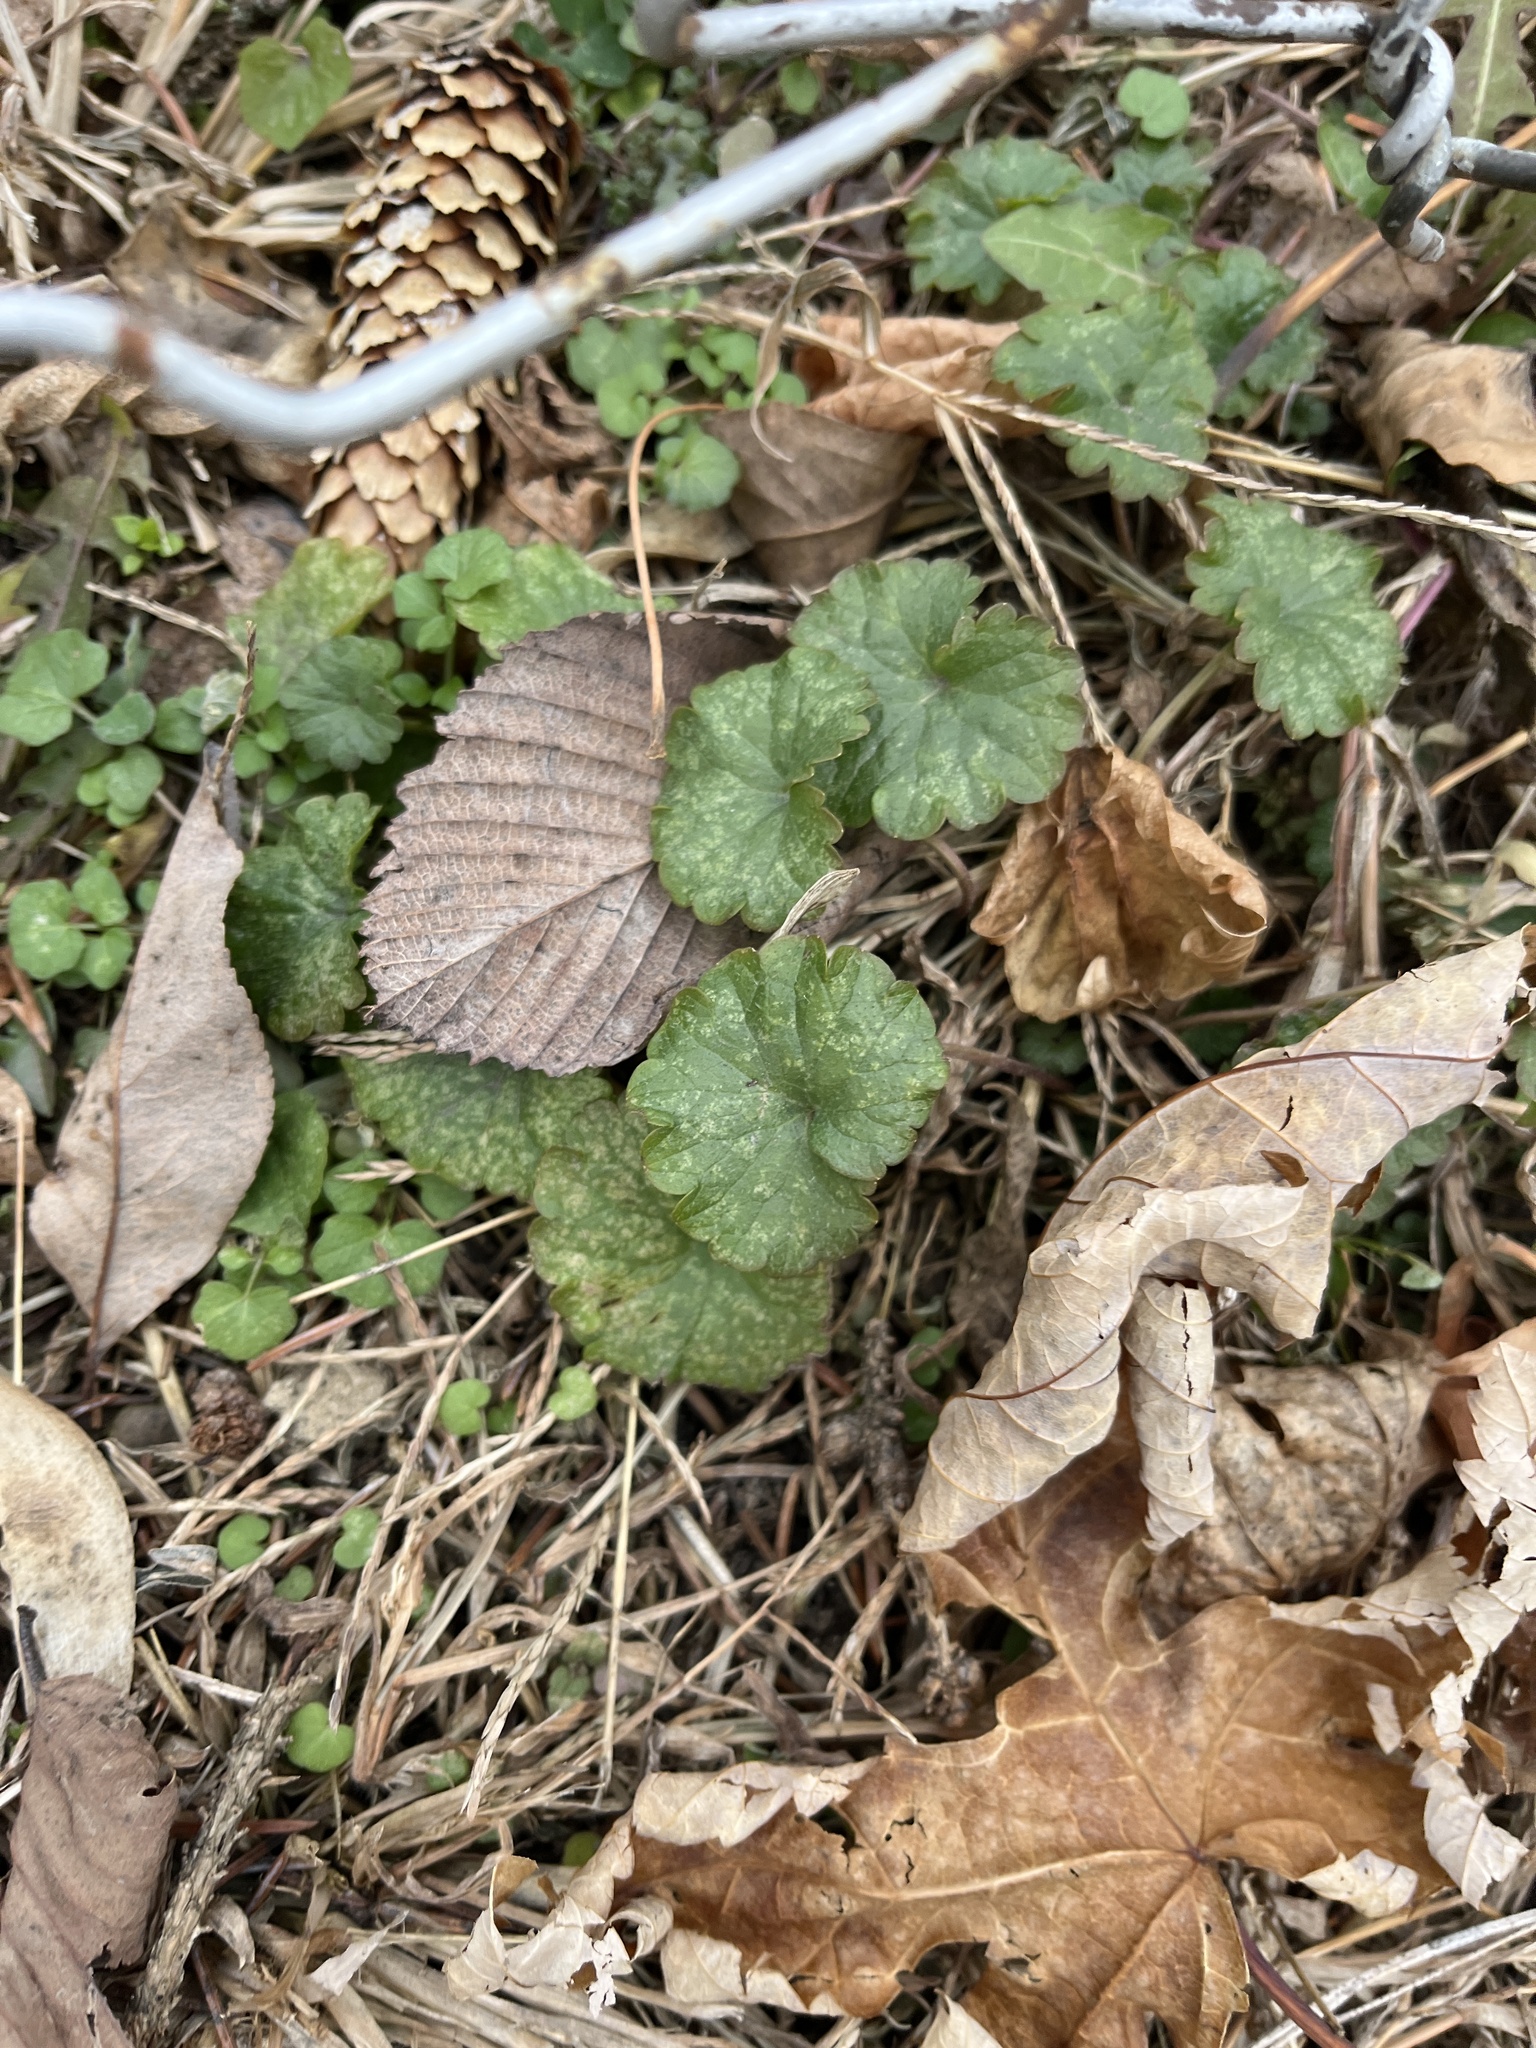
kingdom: Plantae
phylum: Tracheophyta
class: Magnoliopsida
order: Lamiales
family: Lamiaceae
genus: Glechoma
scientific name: Glechoma hederacea
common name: Ground ivy
